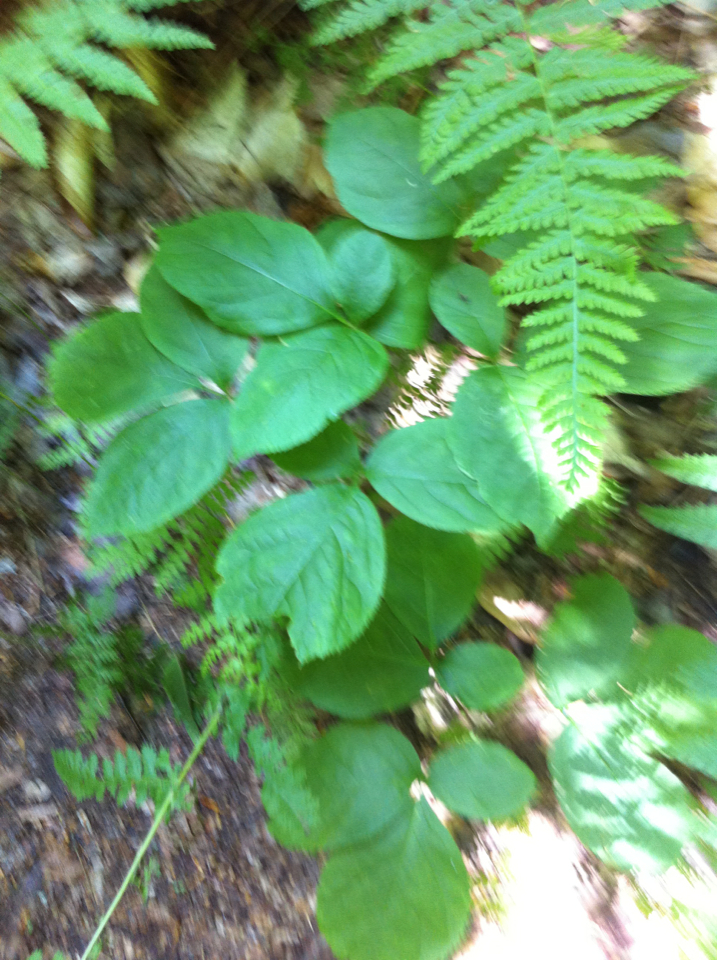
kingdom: Plantae
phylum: Tracheophyta
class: Magnoliopsida
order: Apiales
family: Araliaceae
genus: Aralia
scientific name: Aralia nudicaulis
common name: Wild sarsaparilla
